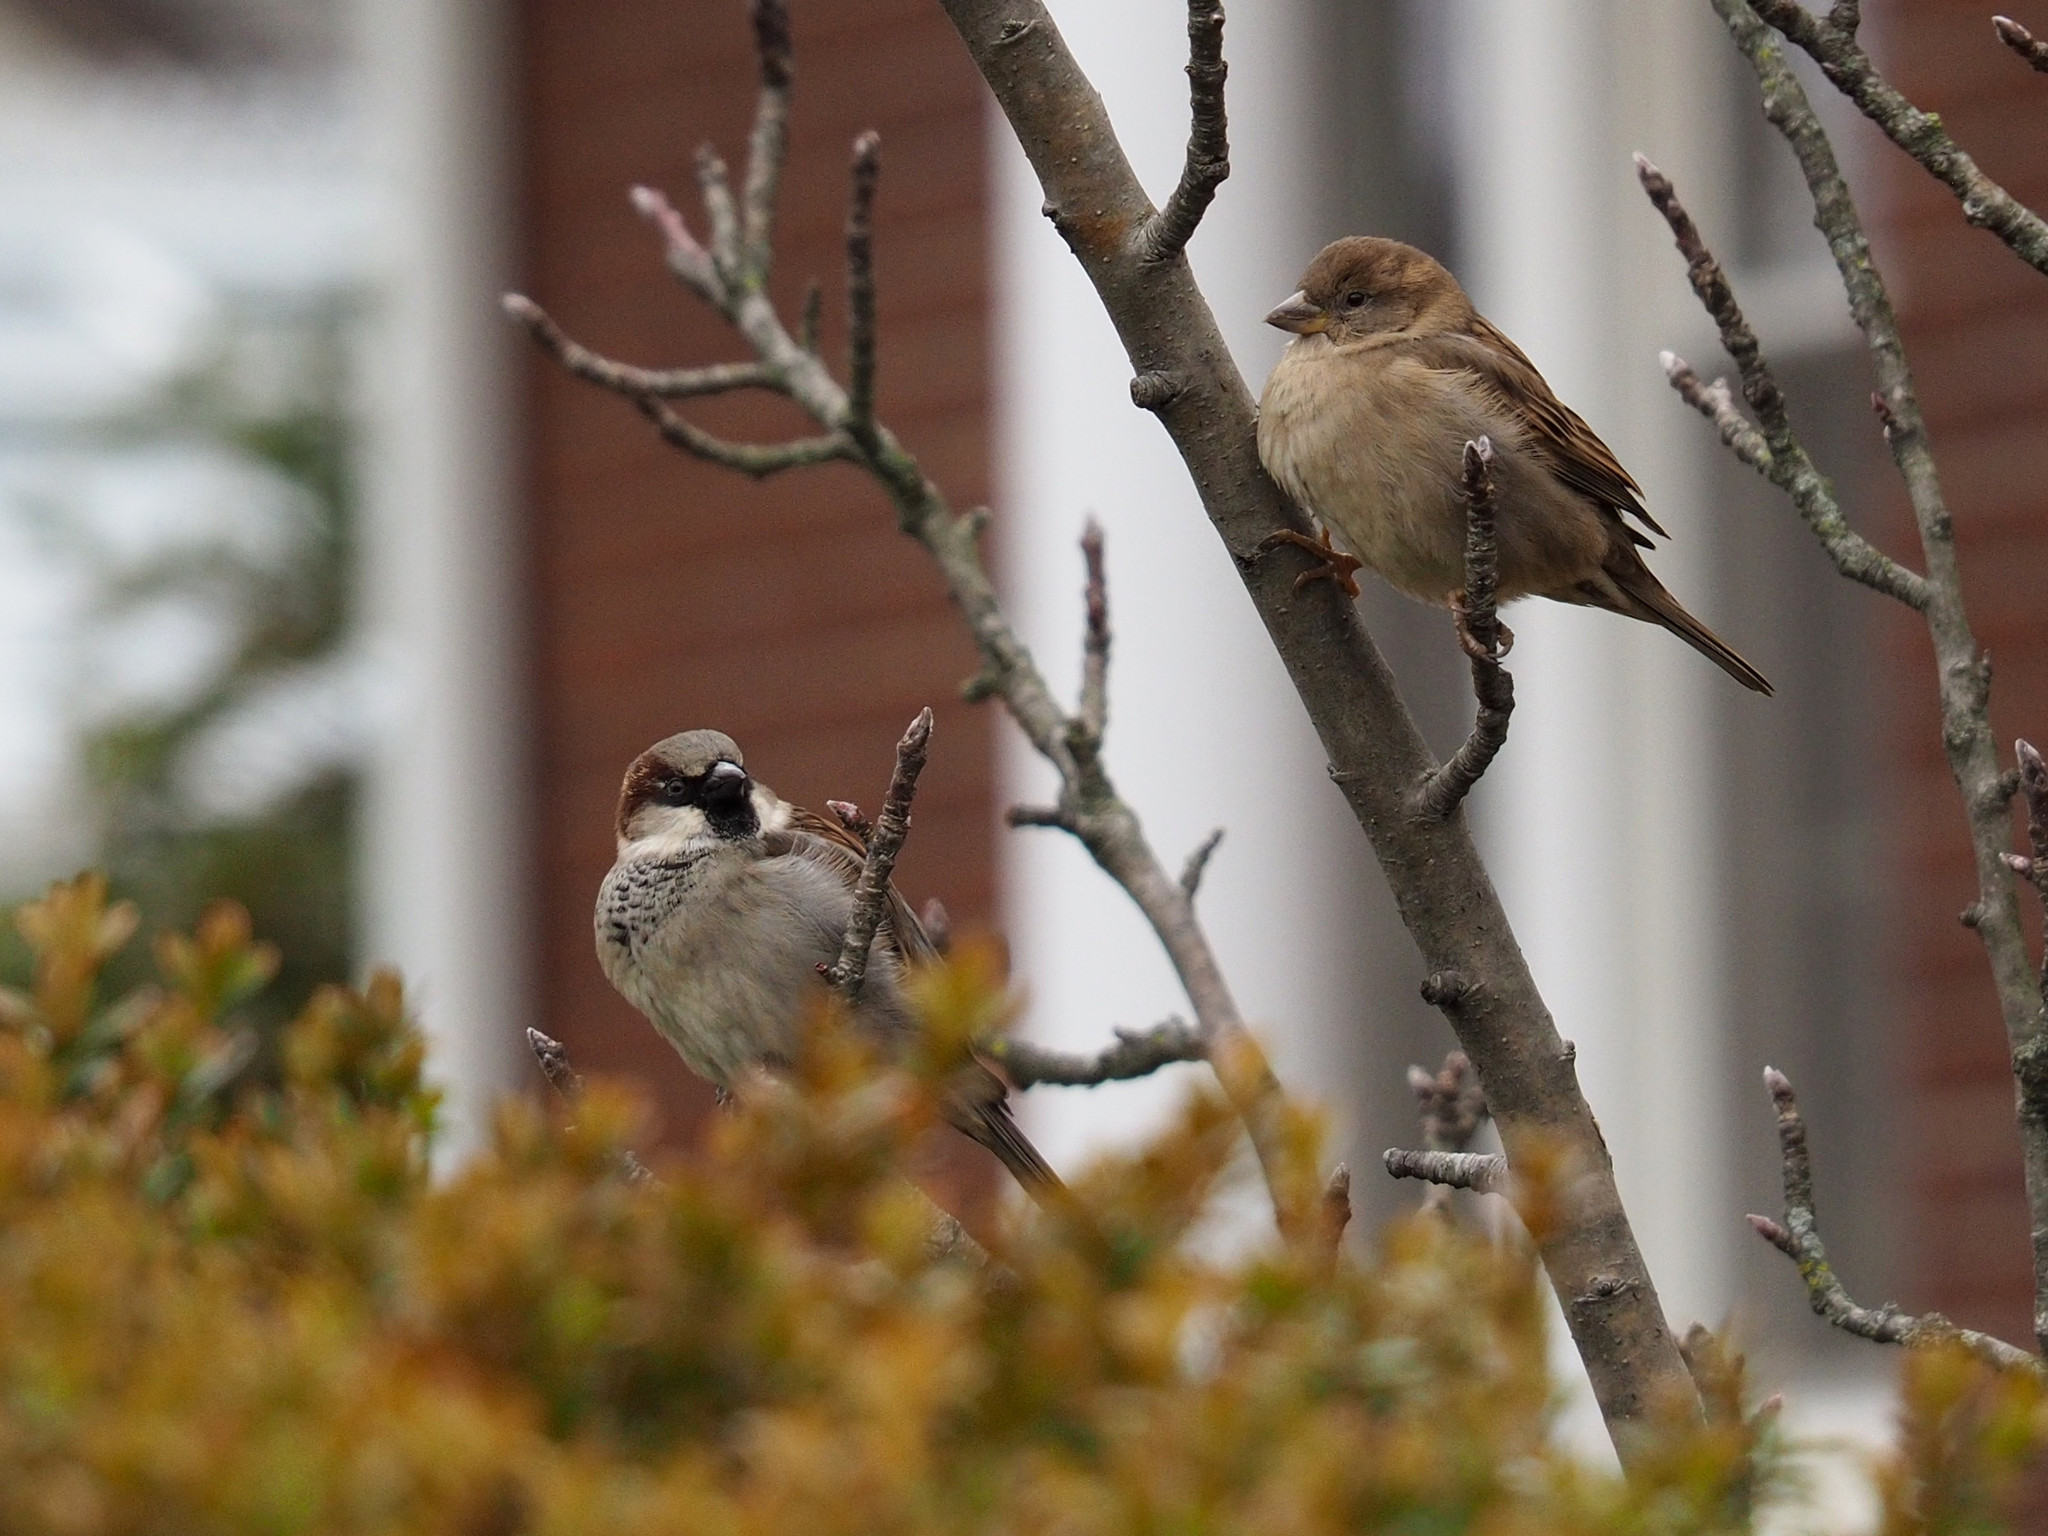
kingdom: Animalia
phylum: Chordata
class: Aves
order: Passeriformes
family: Passeridae
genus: Passer
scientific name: Passer domesticus
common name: House sparrow
